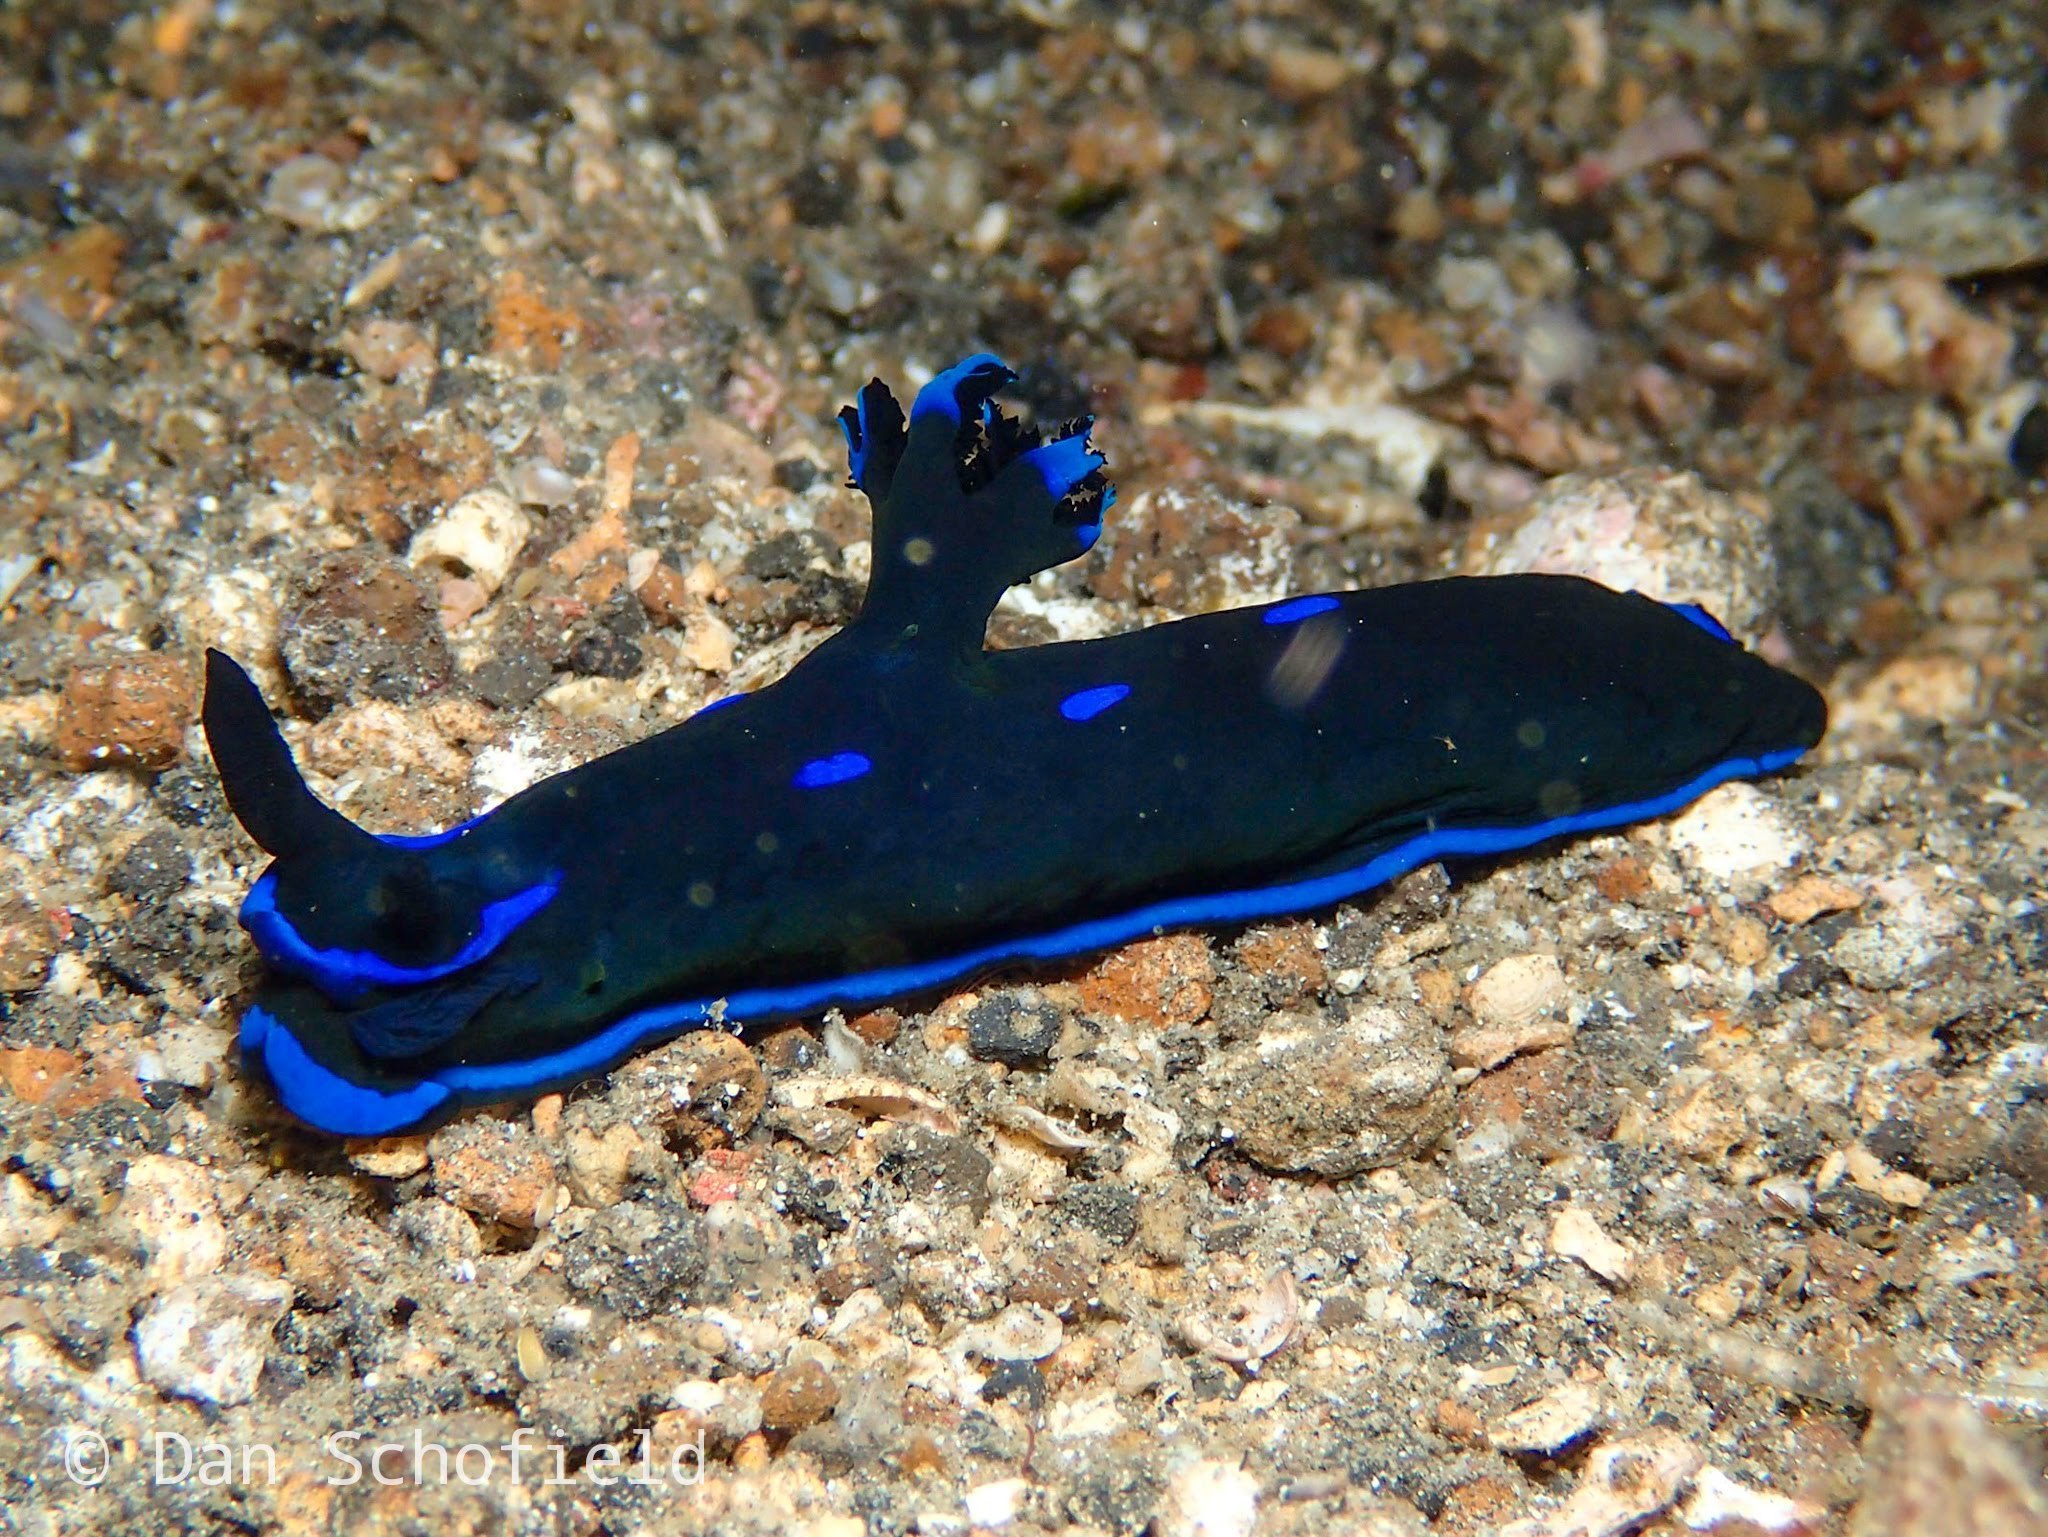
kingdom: Animalia
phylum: Mollusca
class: Gastropoda
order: Nudibranchia
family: Polyceridae
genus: Tambja
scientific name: Tambja morosa
